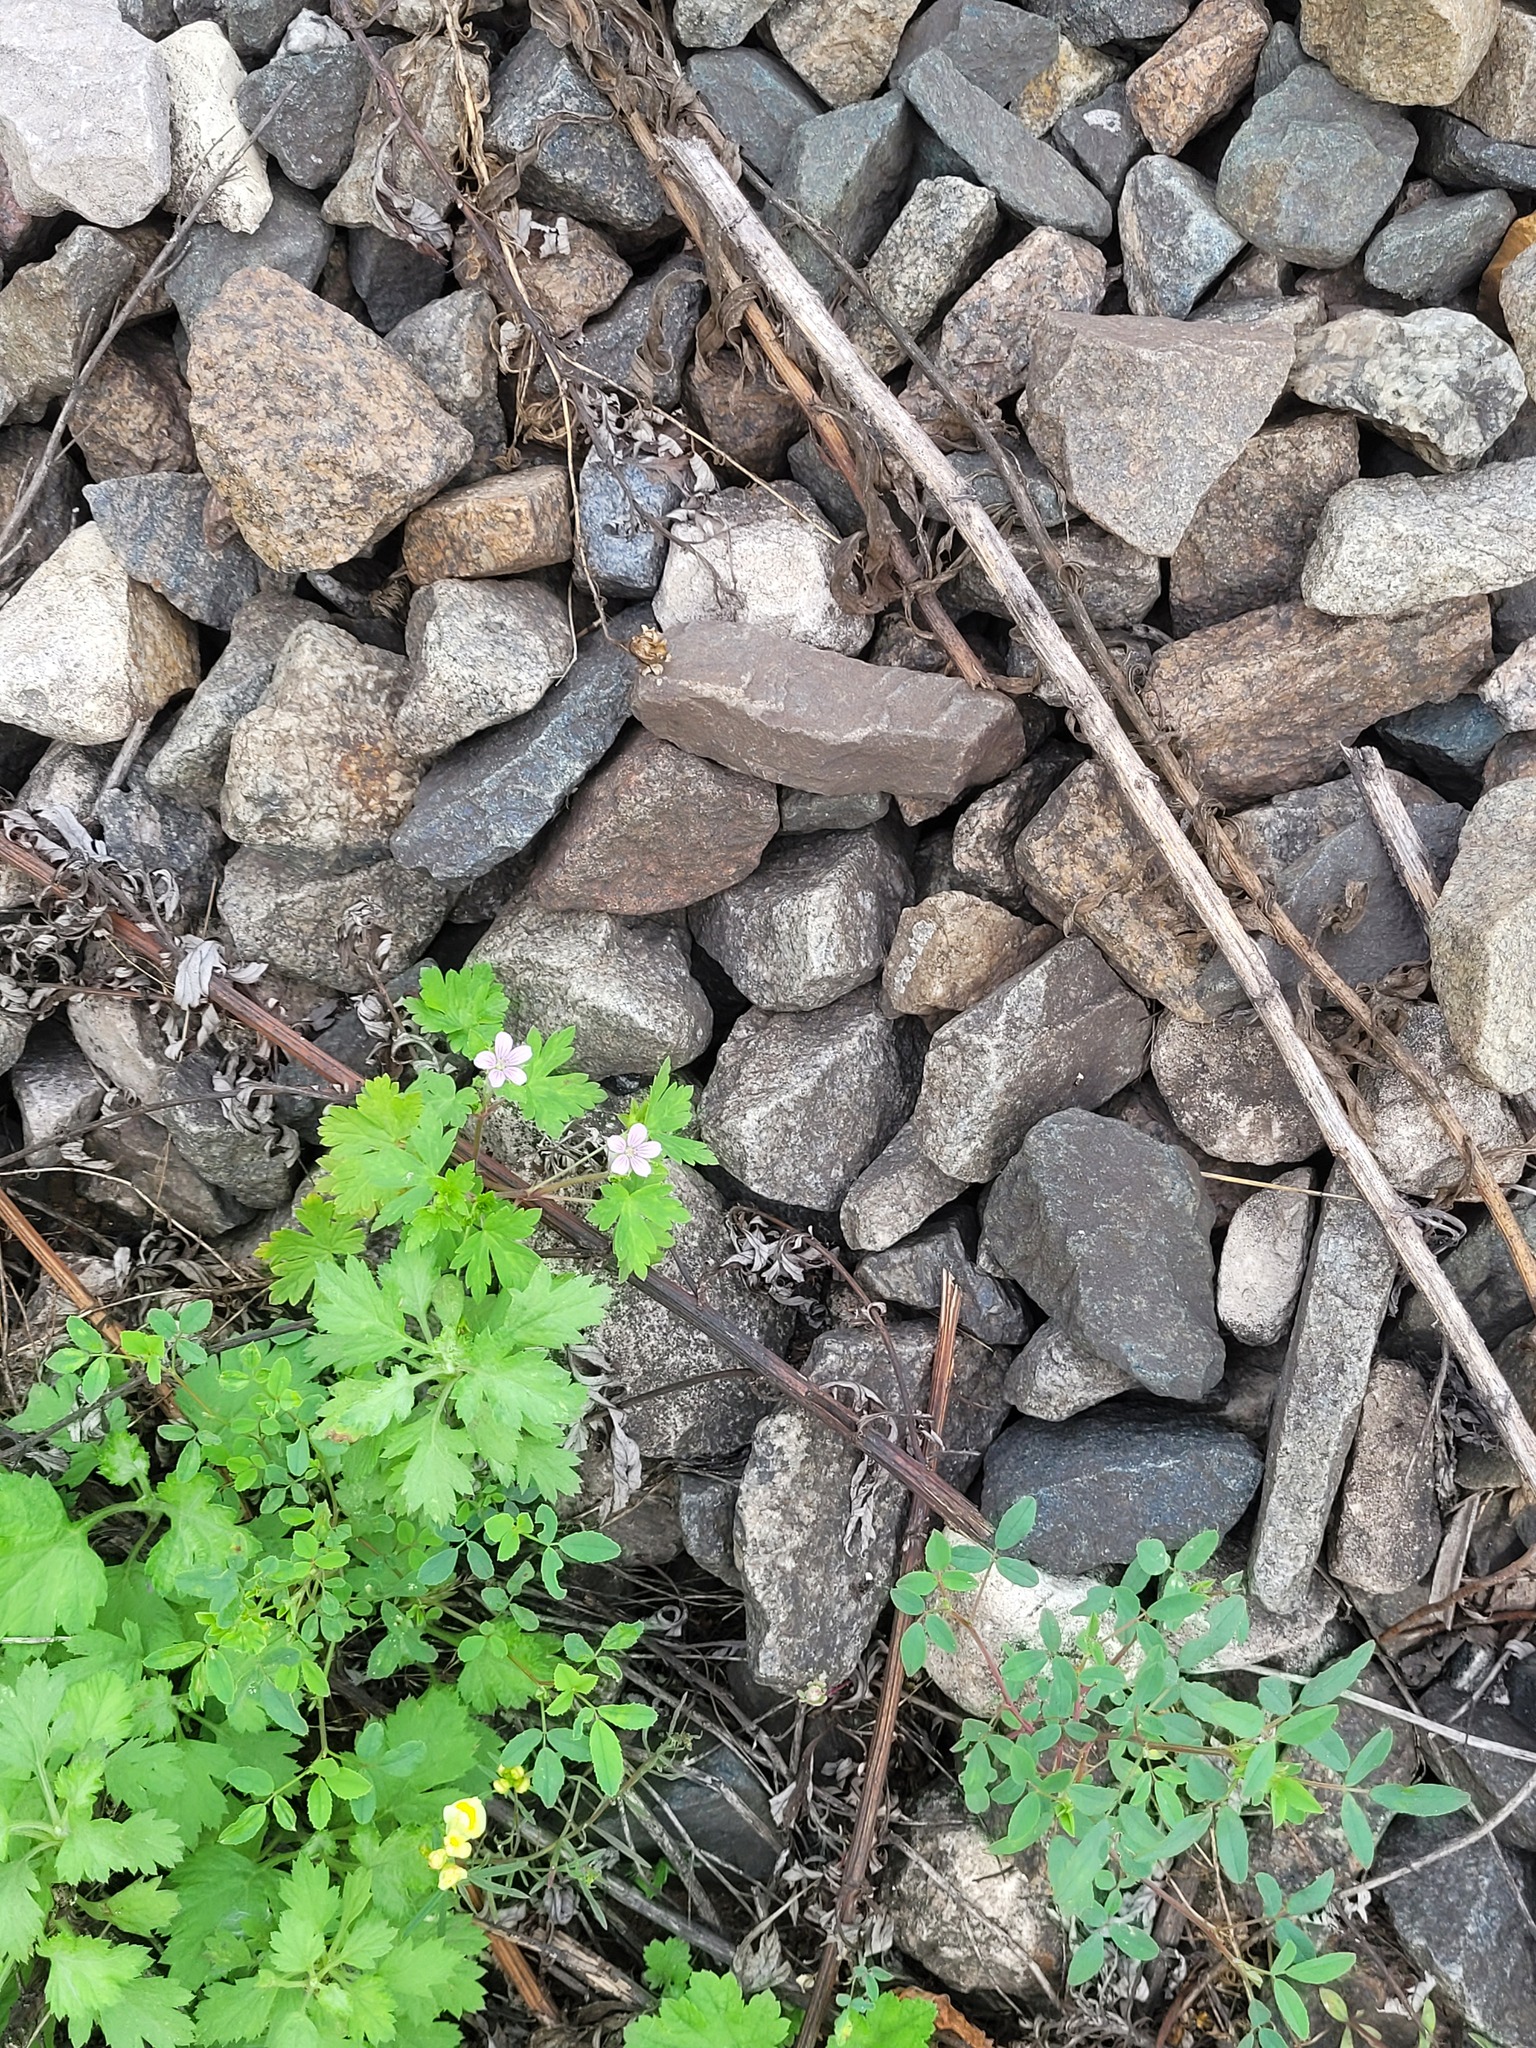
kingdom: Plantae
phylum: Tracheophyta
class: Magnoliopsida
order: Geraniales
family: Geraniaceae
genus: Geranium
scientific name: Geranium sibiricum
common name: Siberian crane's-bill
